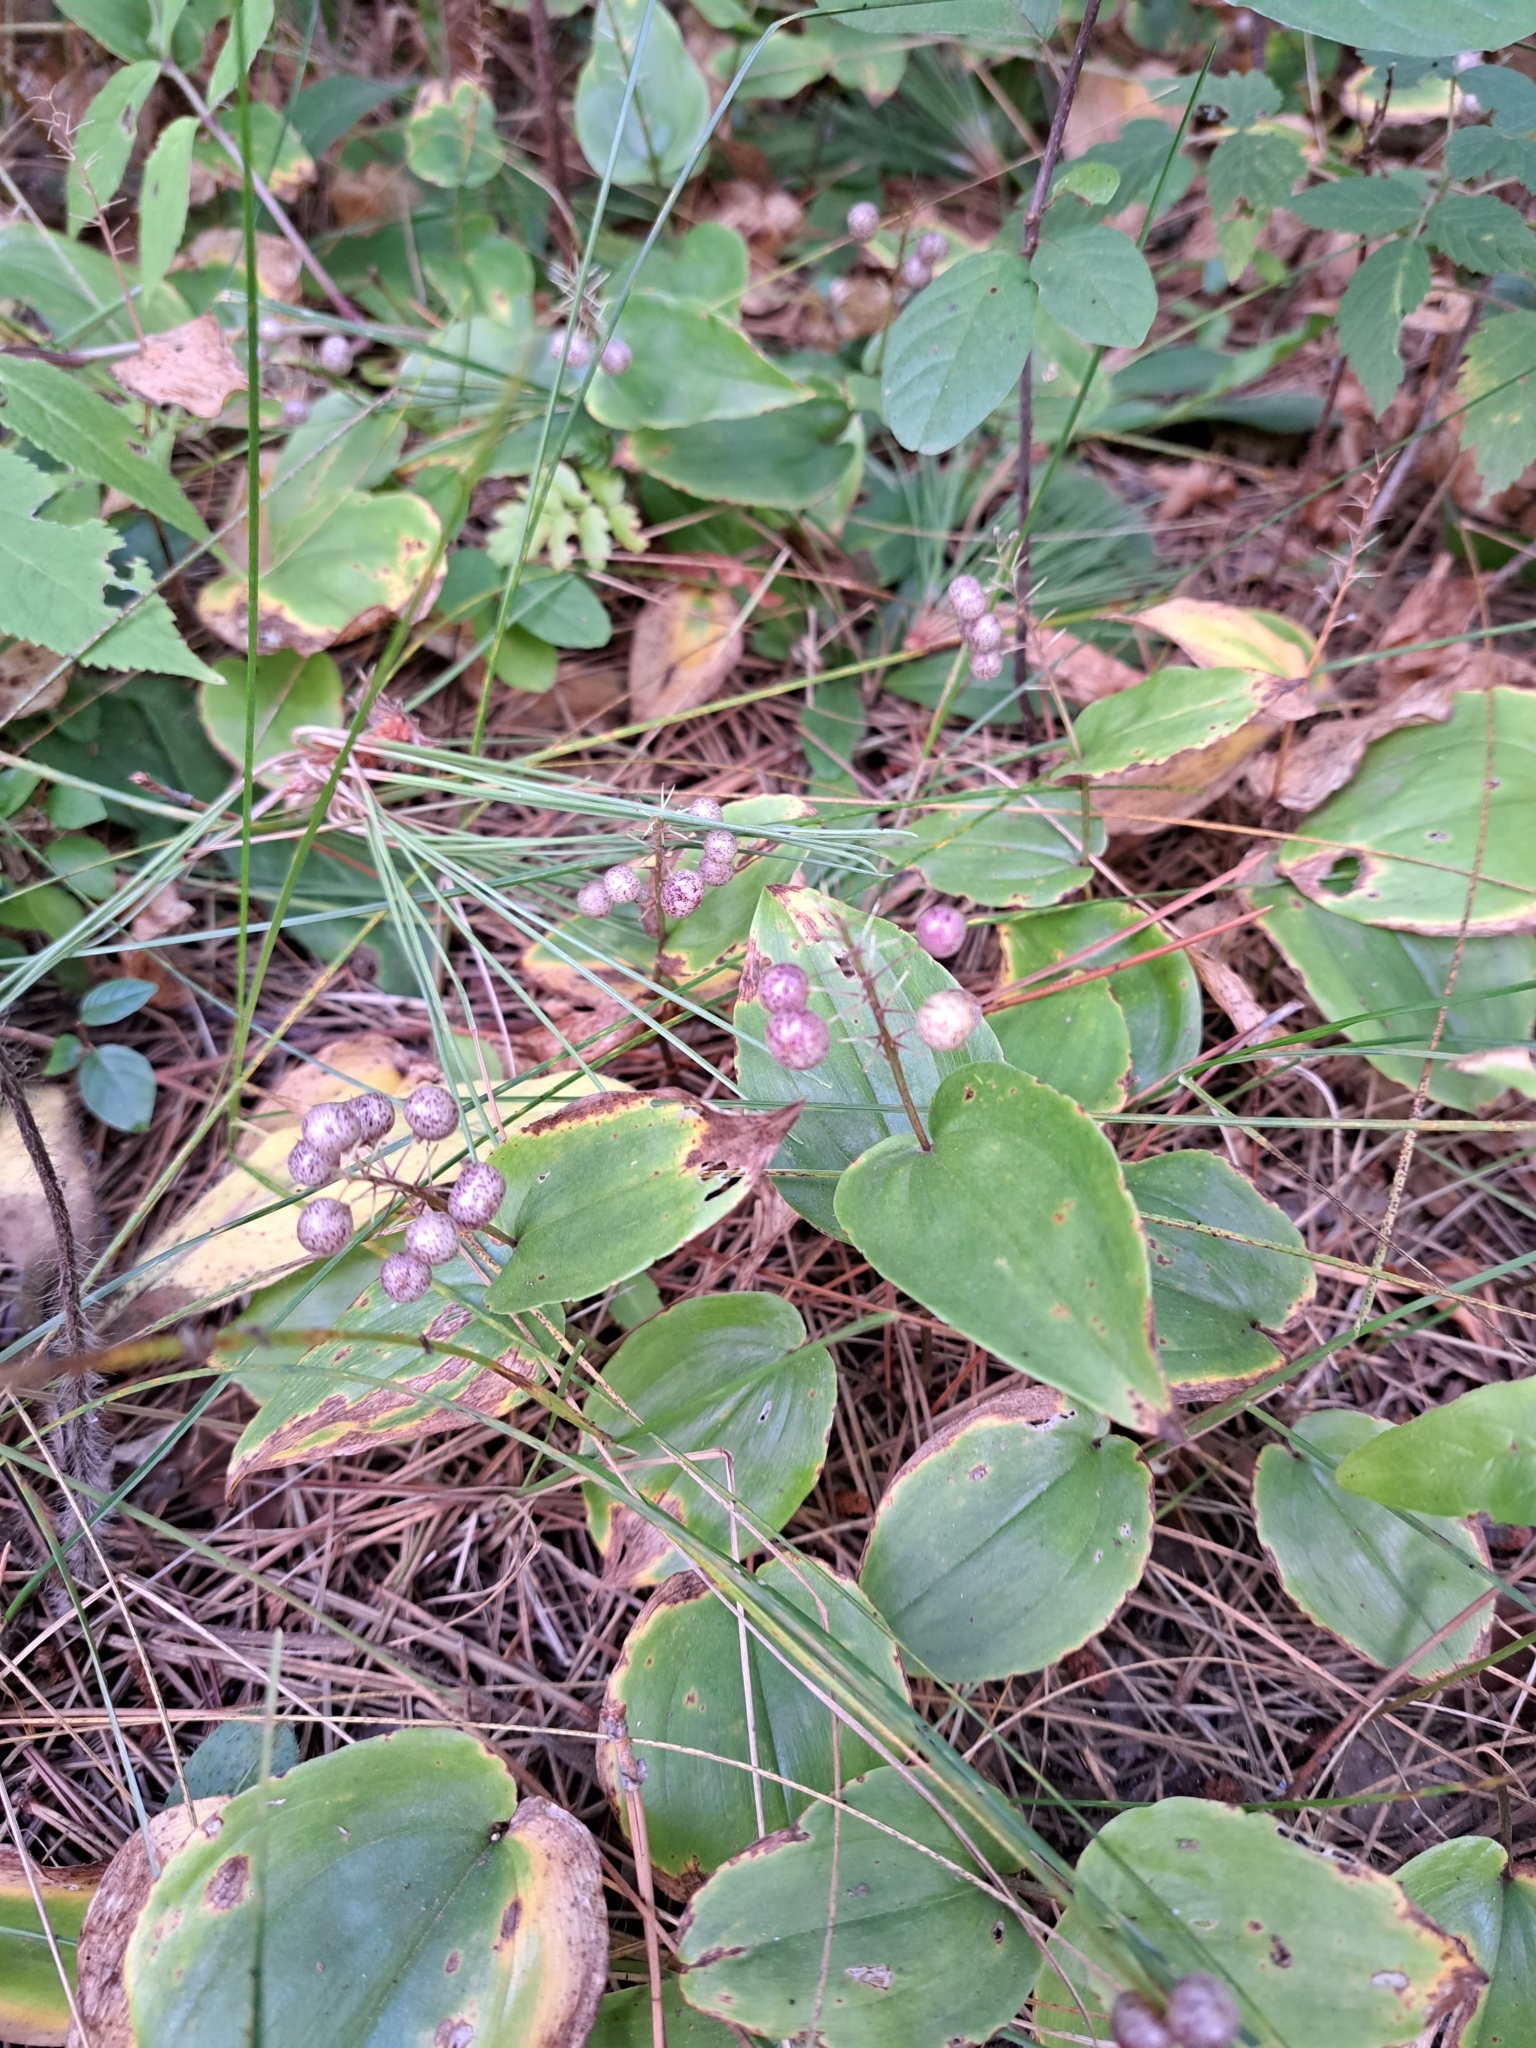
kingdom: Plantae
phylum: Tracheophyta
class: Liliopsida
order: Asparagales
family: Asparagaceae
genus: Maianthemum
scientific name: Maianthemum canadense
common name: False lily-of-the-valley
